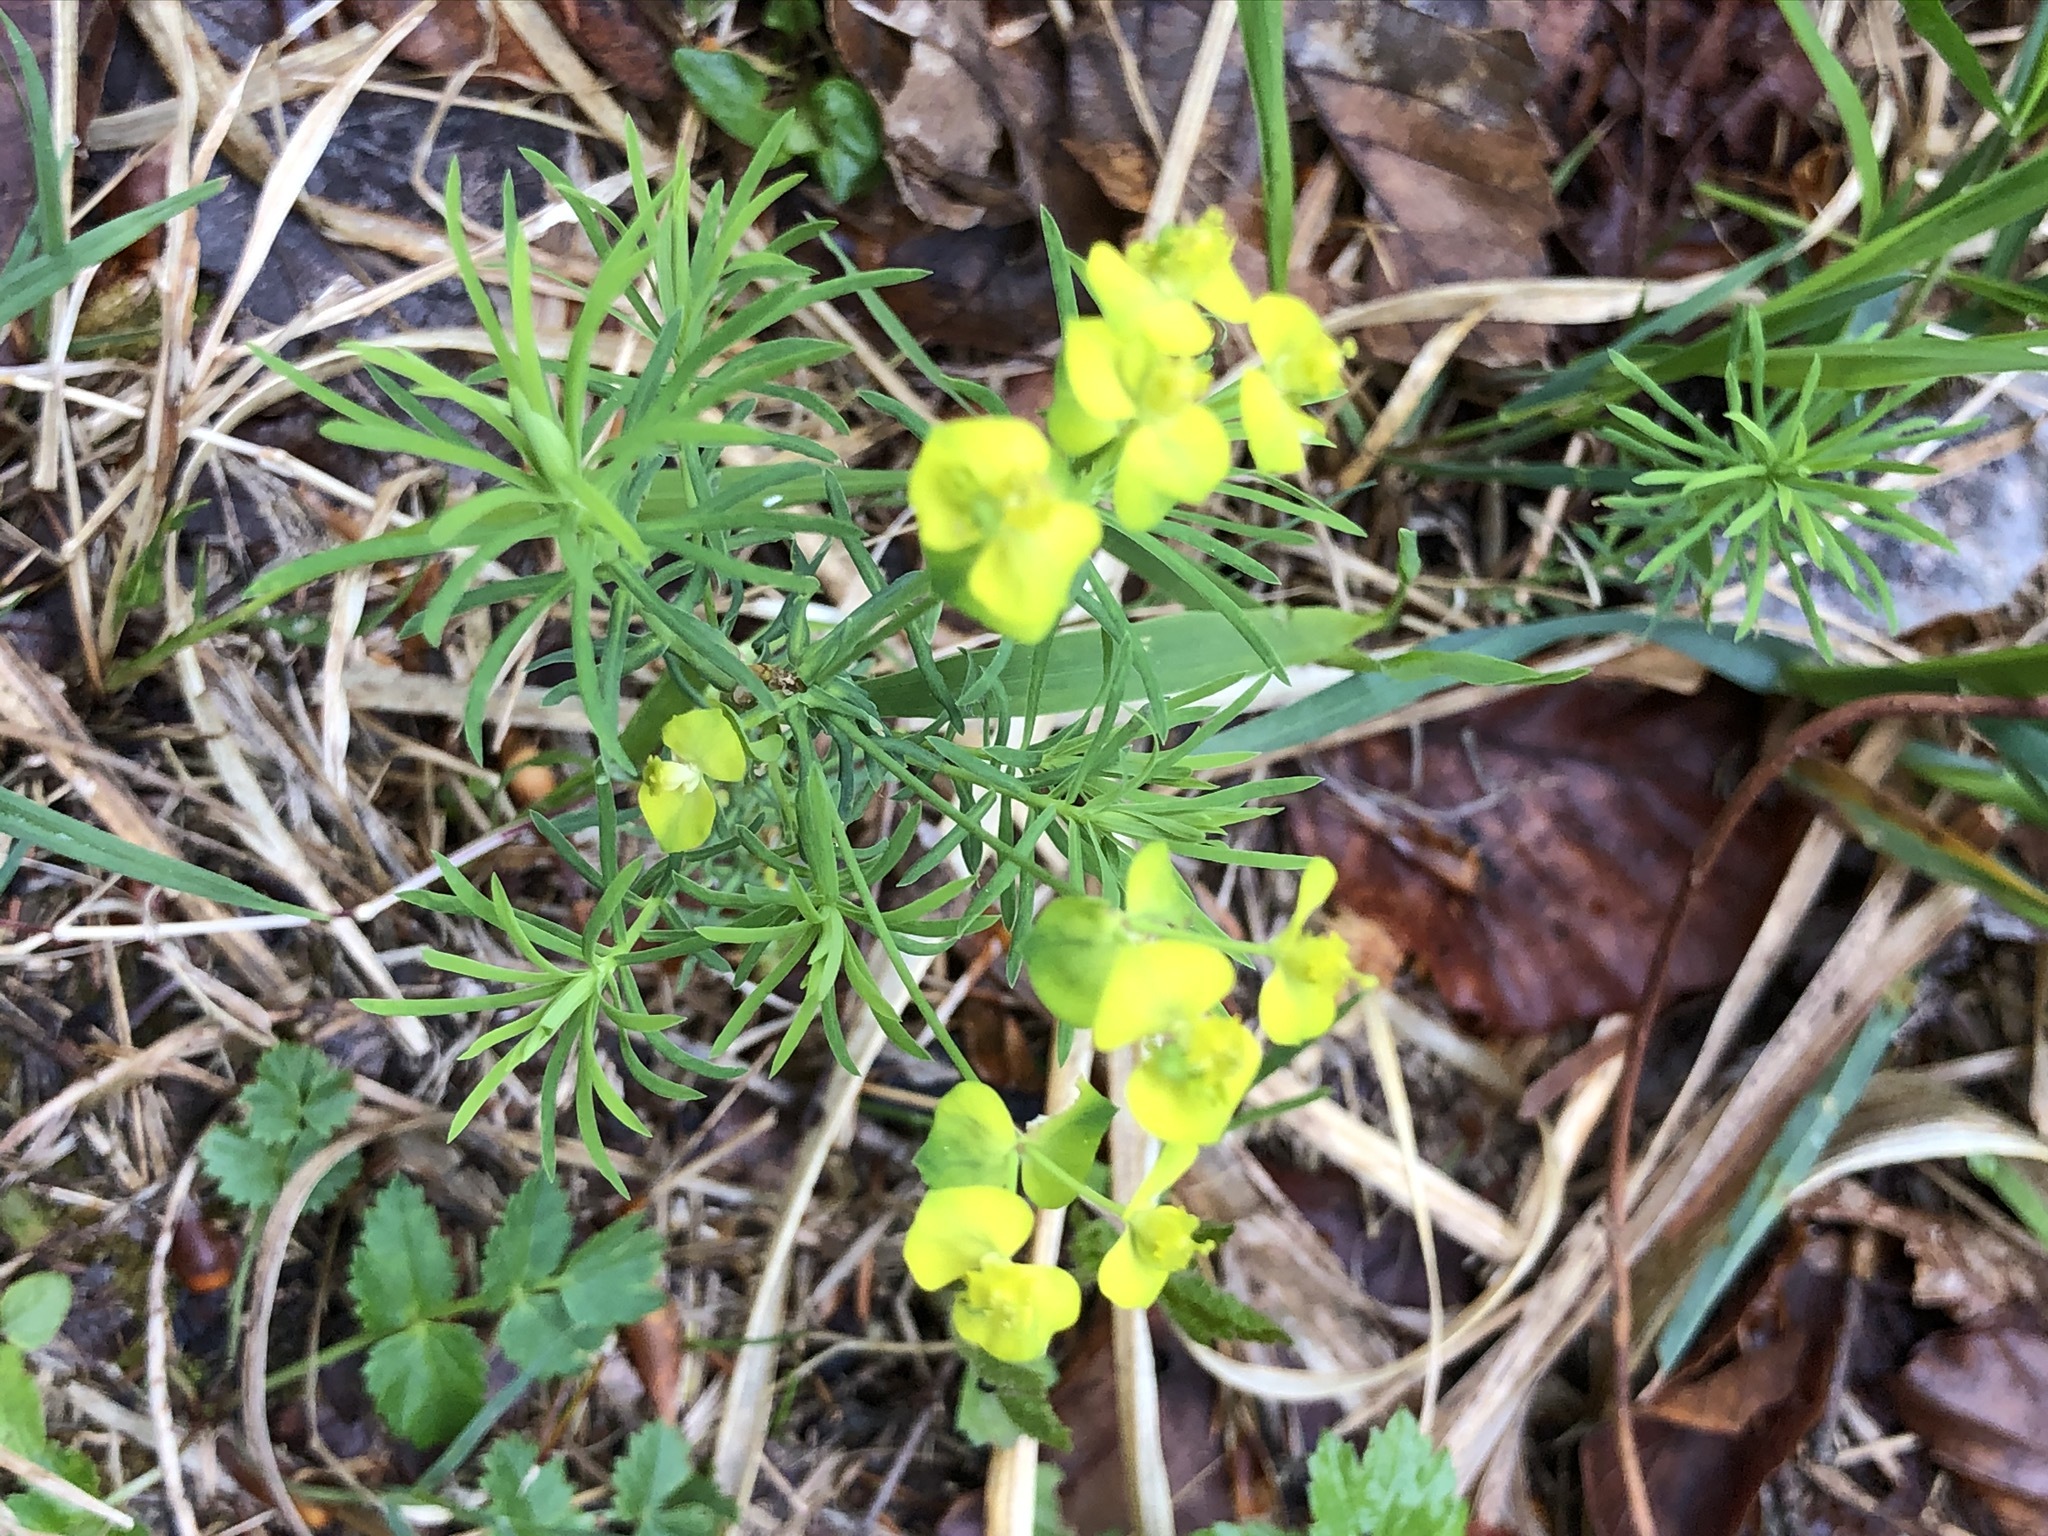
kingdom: Plantae
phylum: Tracheophyta
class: Magnoliopsida
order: Malpighiales
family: Euphorbiaceae
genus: Euphorbia
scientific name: Euphorbia cyparissias
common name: Cypress spurge
